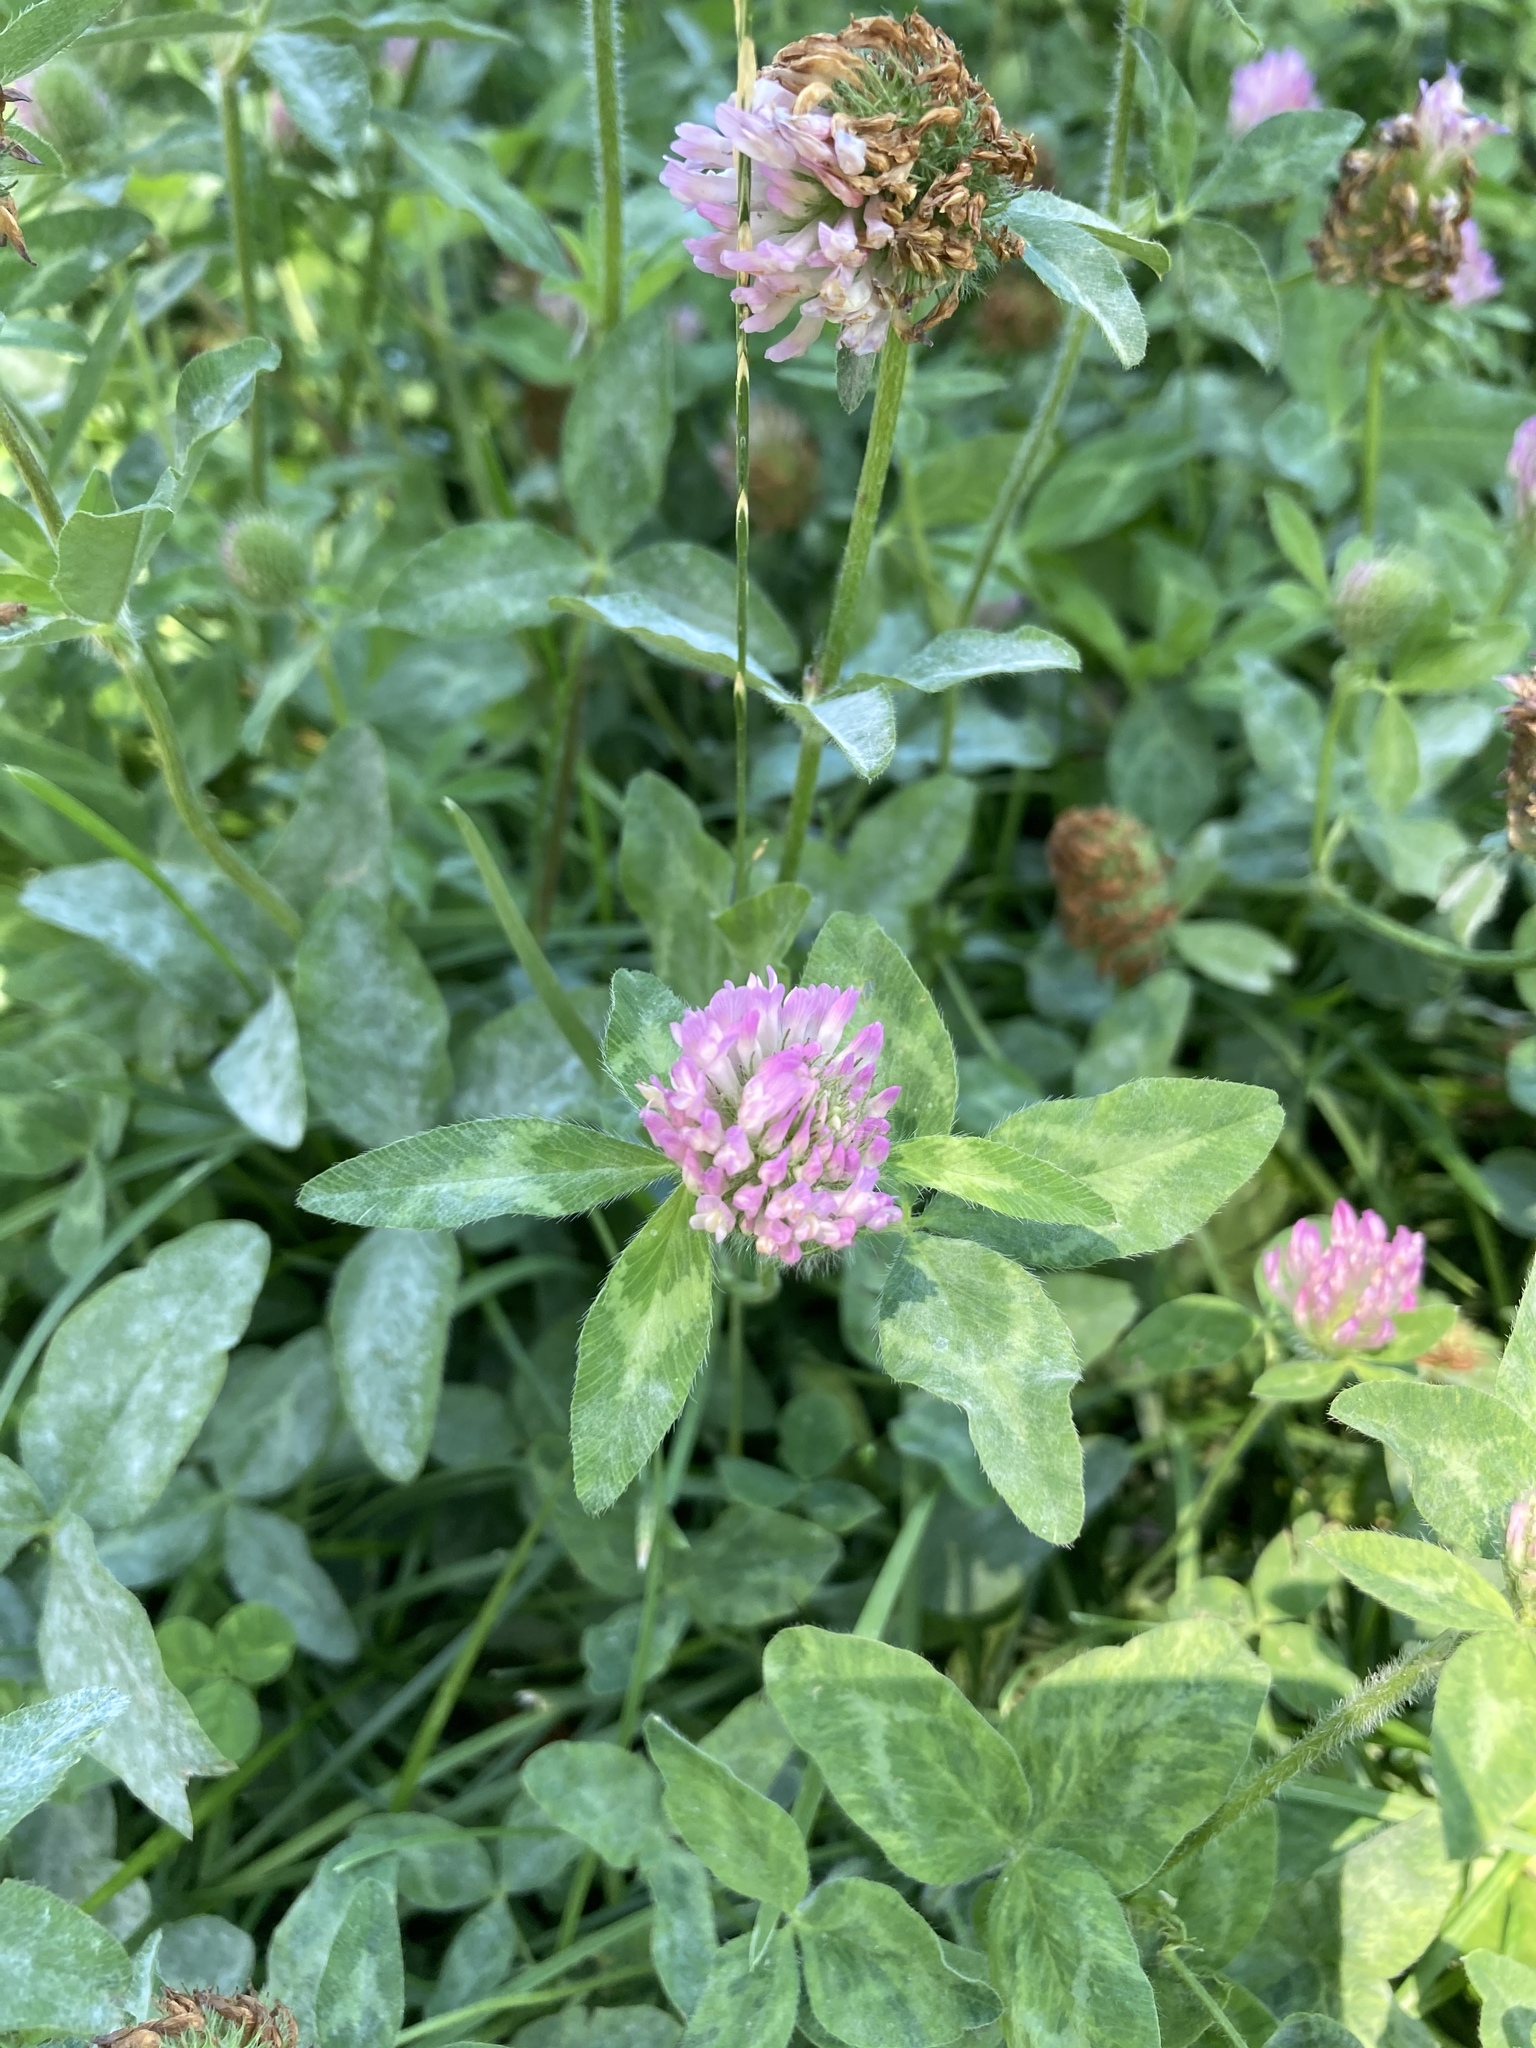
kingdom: Plantae
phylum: Tracheophyta
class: Magnoliopsida
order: Fabales
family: Fabaceae
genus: Trifolium
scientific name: Trifolium pratense
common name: Red clover
